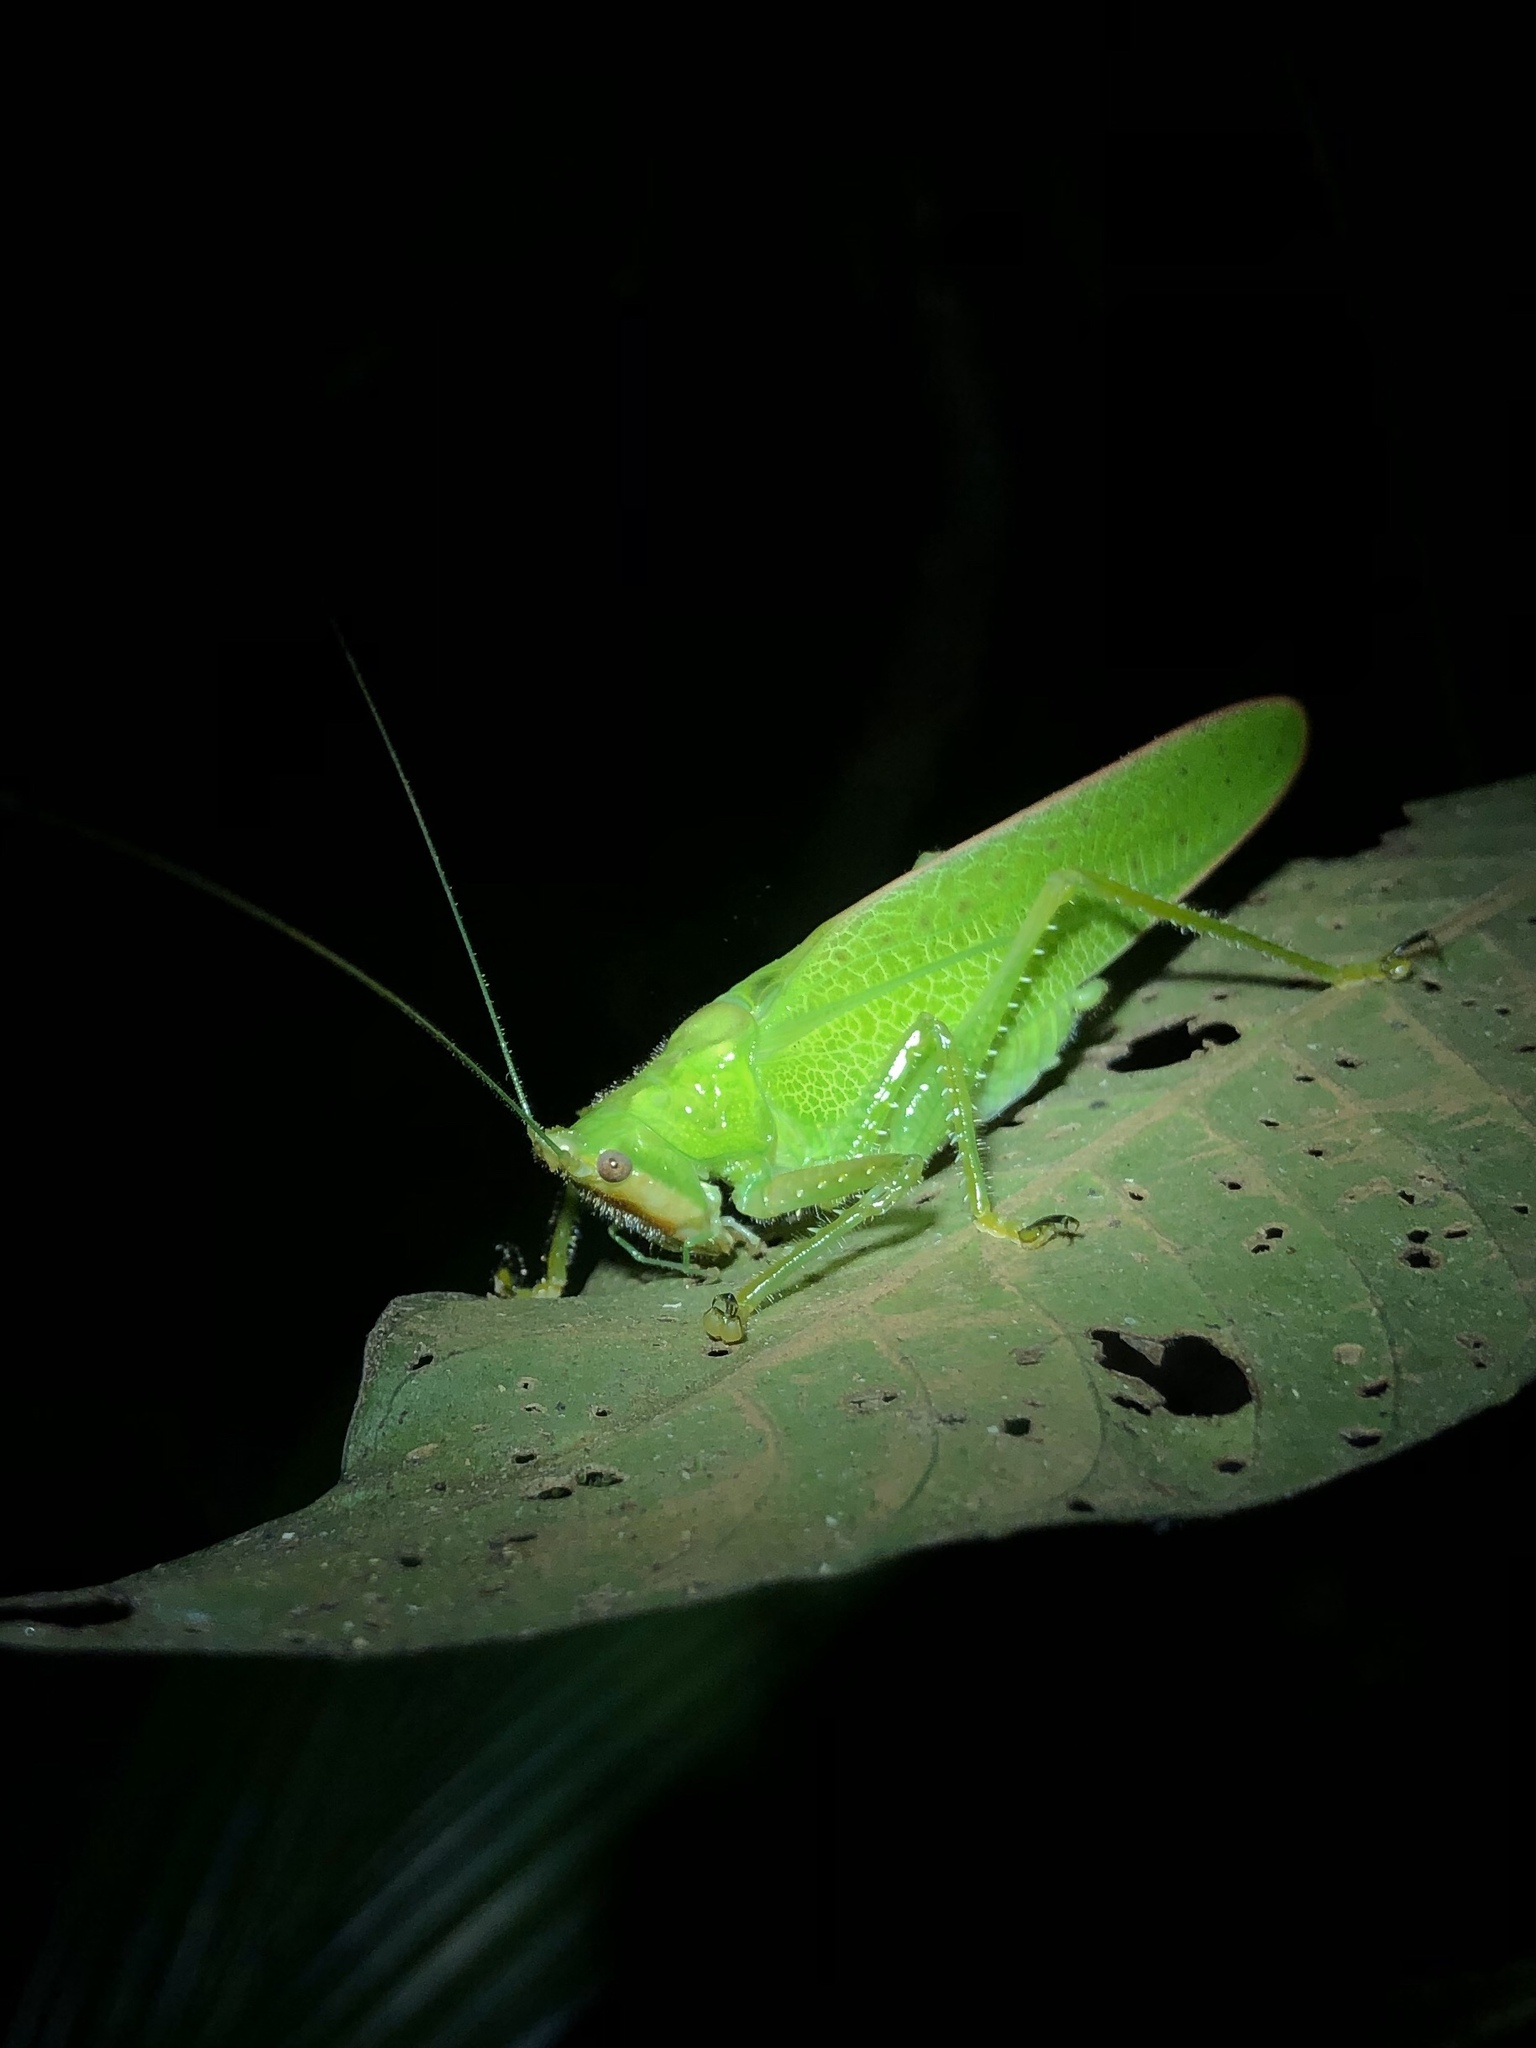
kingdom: Animalia
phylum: Arthropoda
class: Insecta
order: Orthoptera
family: Tettigoniidae
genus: Copiphora
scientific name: Copiphora brevirostris
